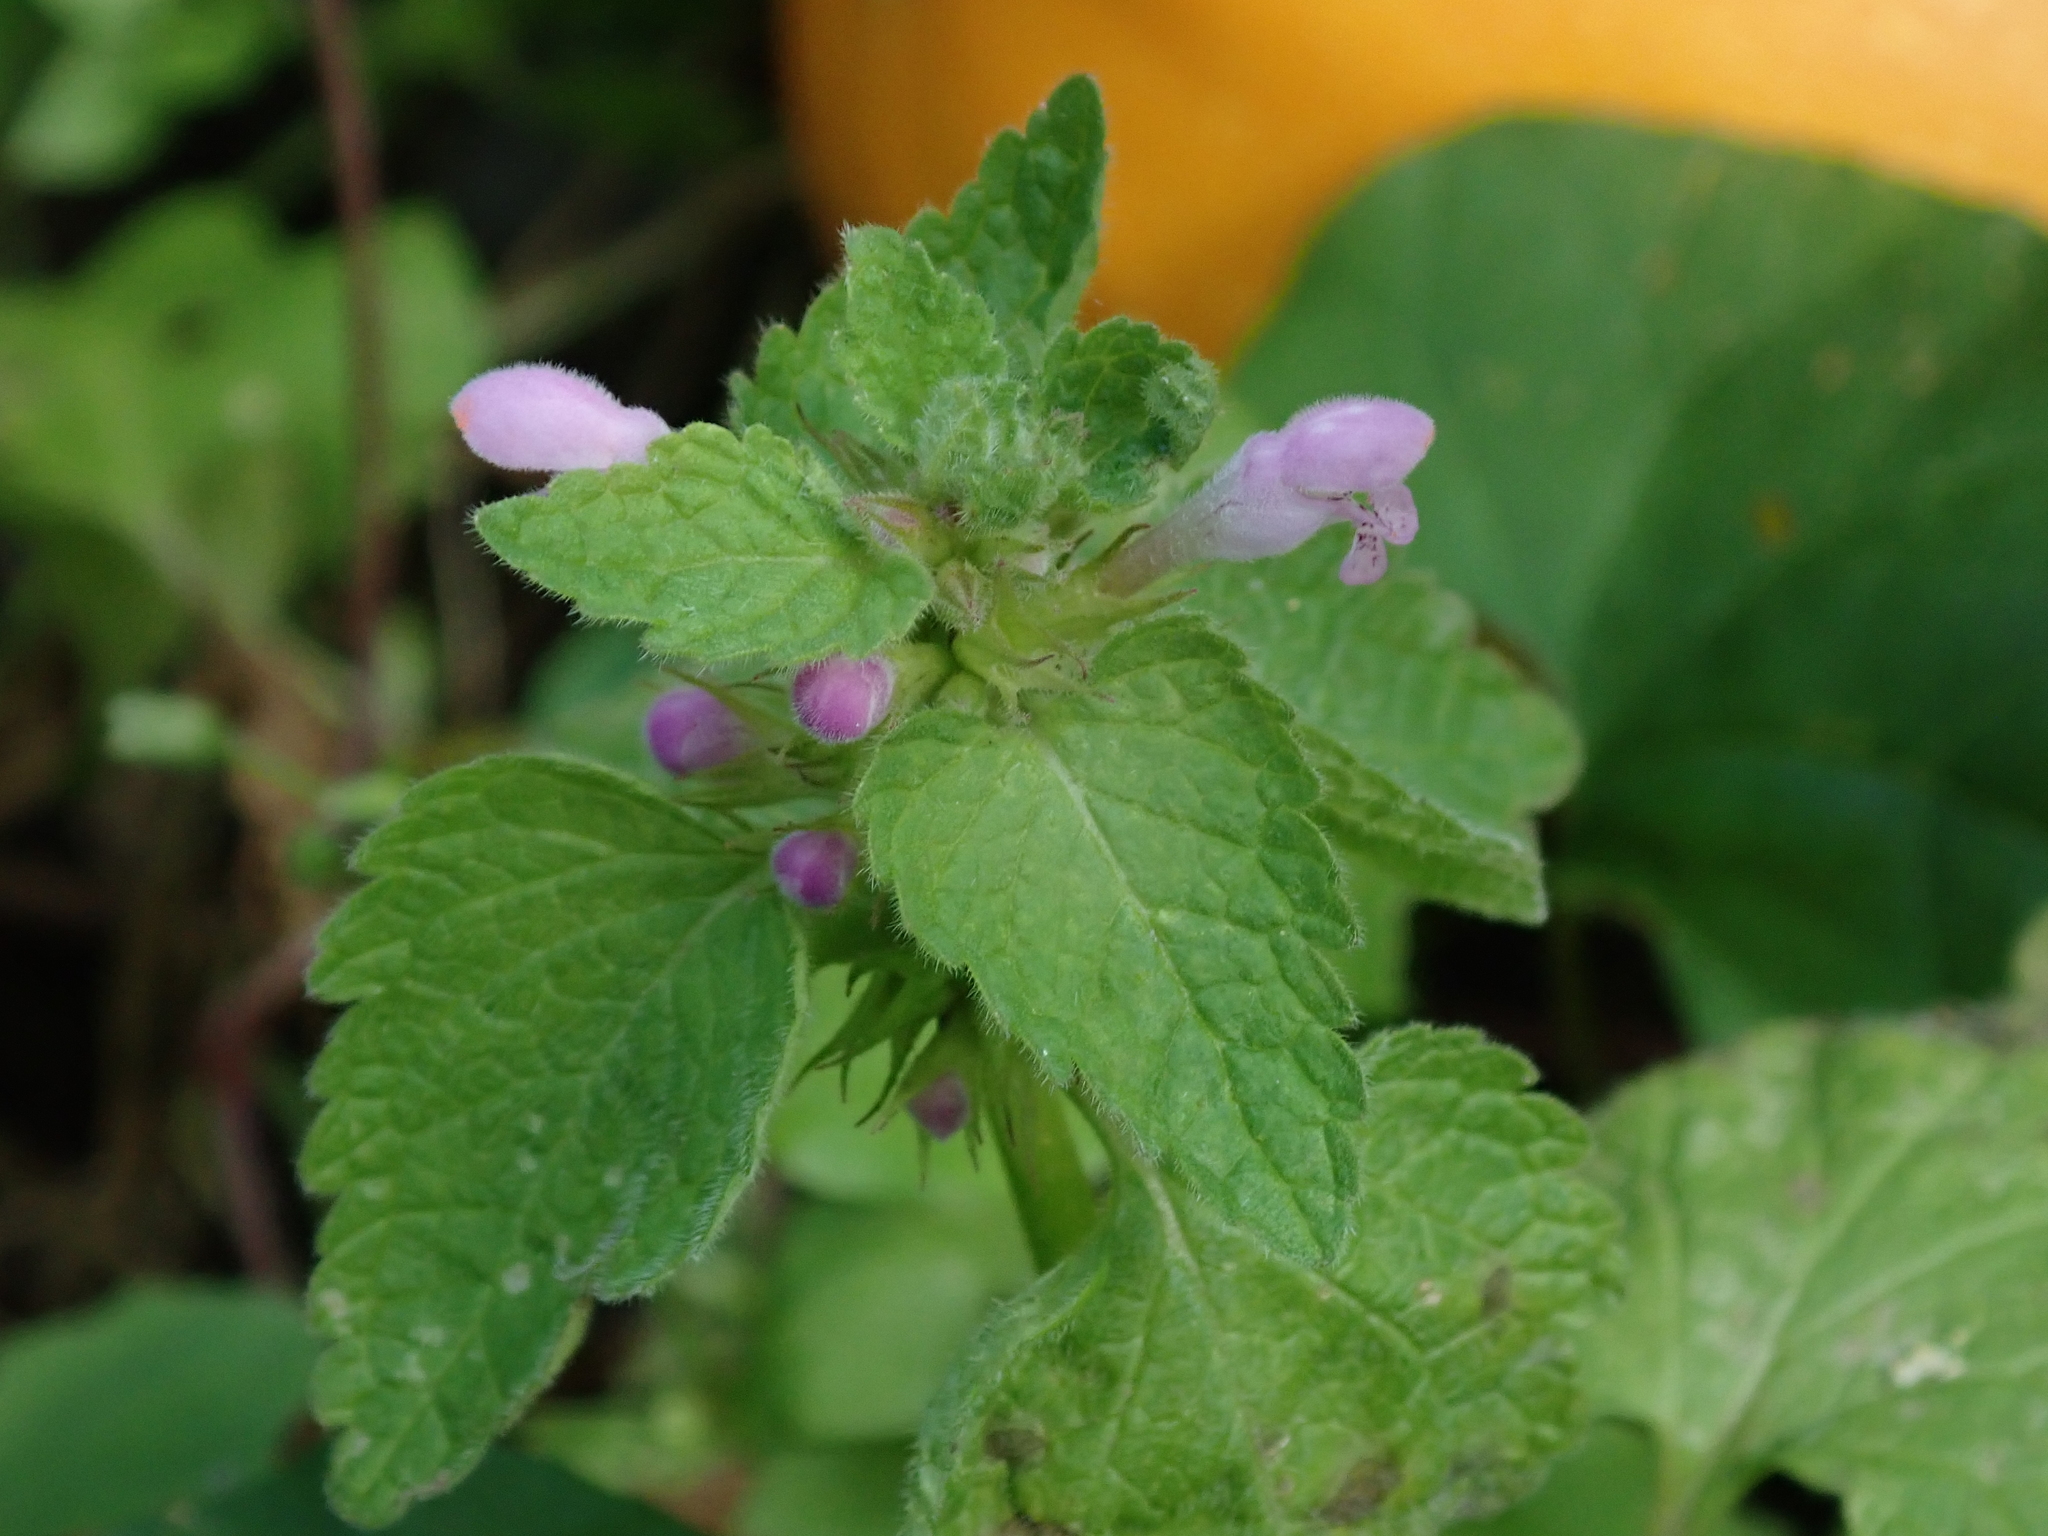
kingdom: Plantae
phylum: Tracheophyta
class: Magnoliopsida
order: Lamiales
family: Lamiaceae
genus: Lamium
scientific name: Lamium purpureum
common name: Red dead-nettle
